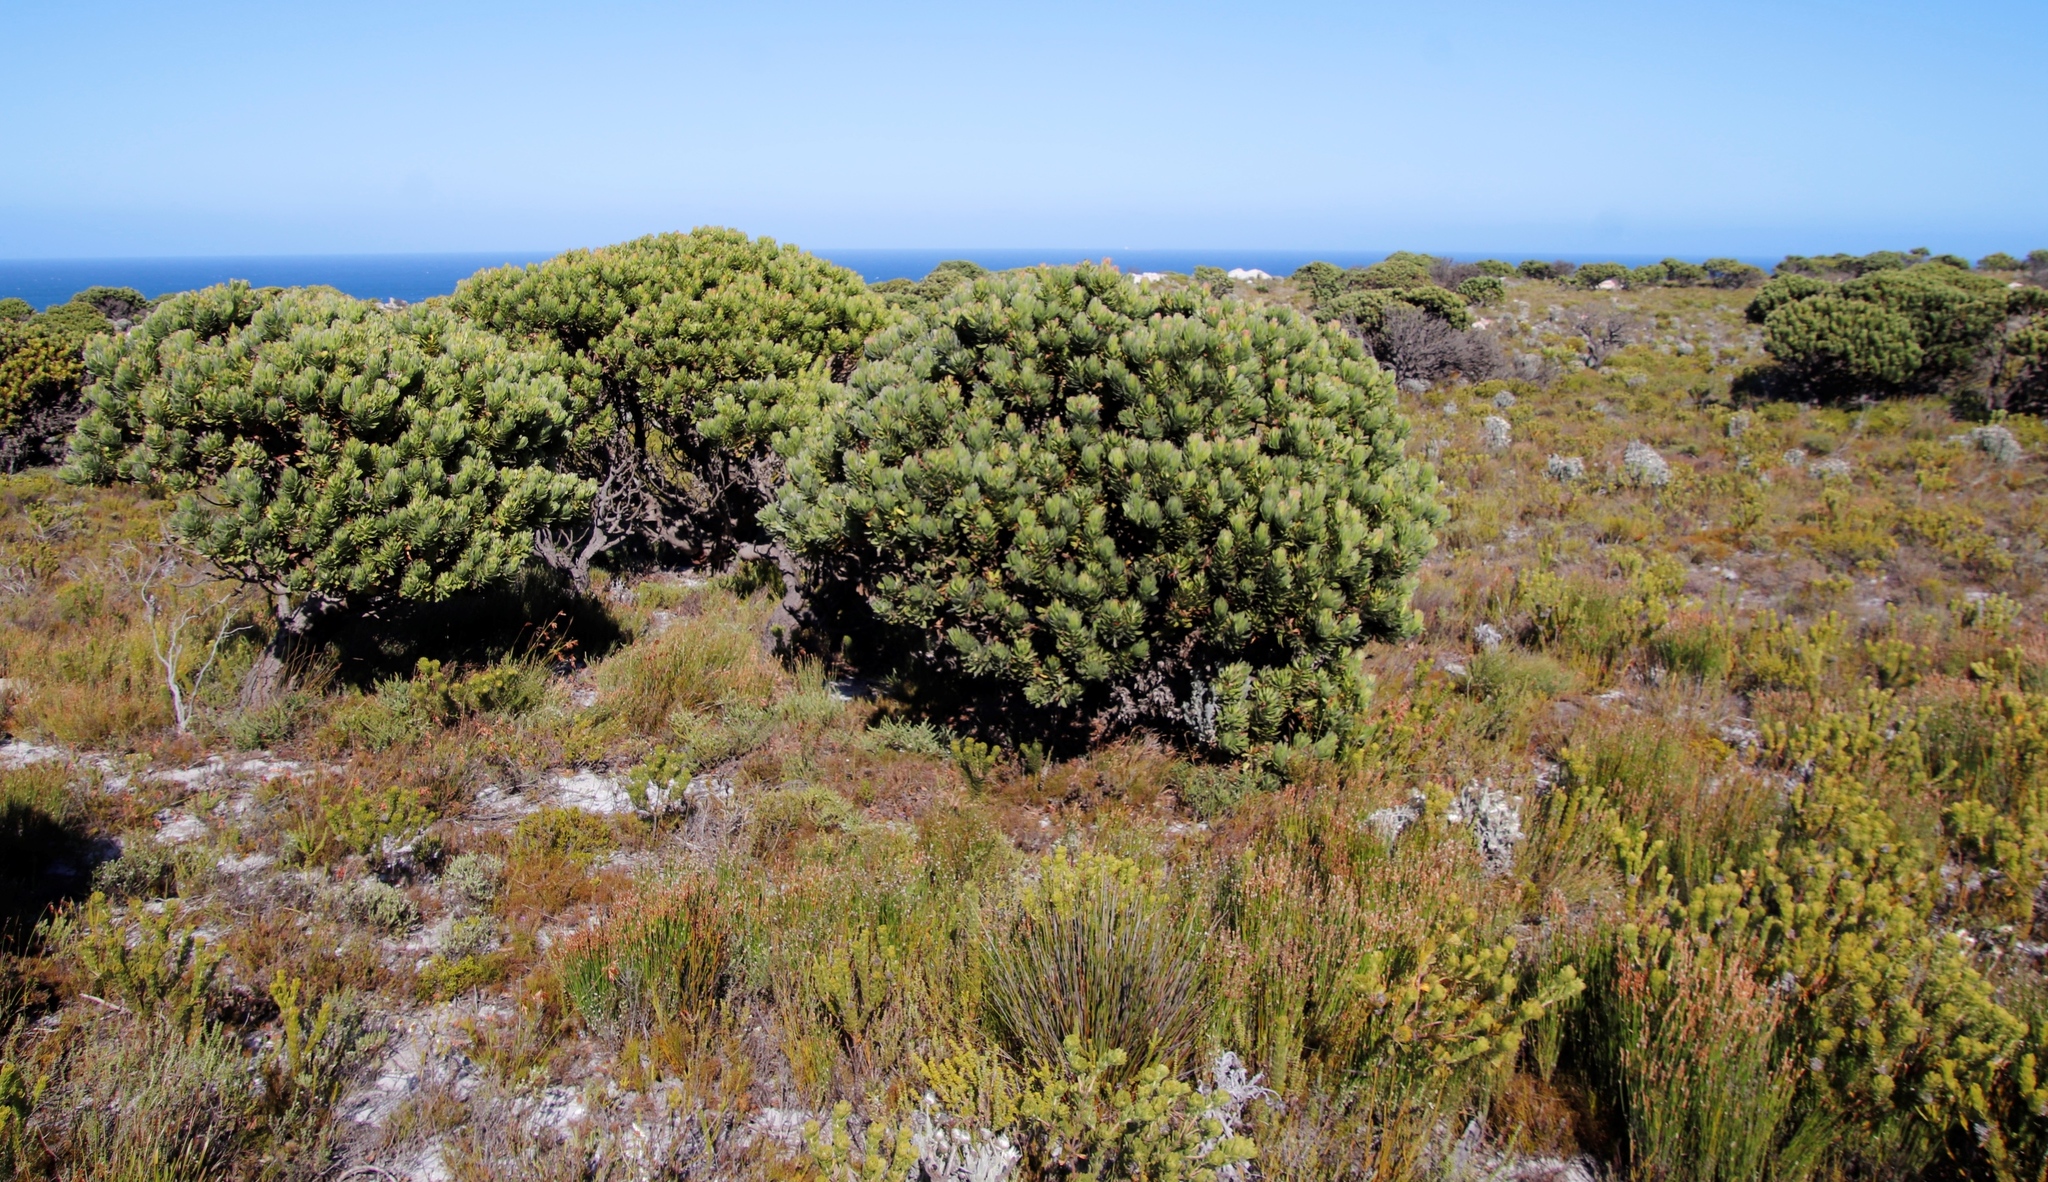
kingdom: Plantae
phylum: Tracheophyta
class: Magnoliopsida
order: Proteales
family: Proteaceae
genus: Mimetes
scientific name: Mimetes fimbriifolius
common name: Fringed bottlebrush
